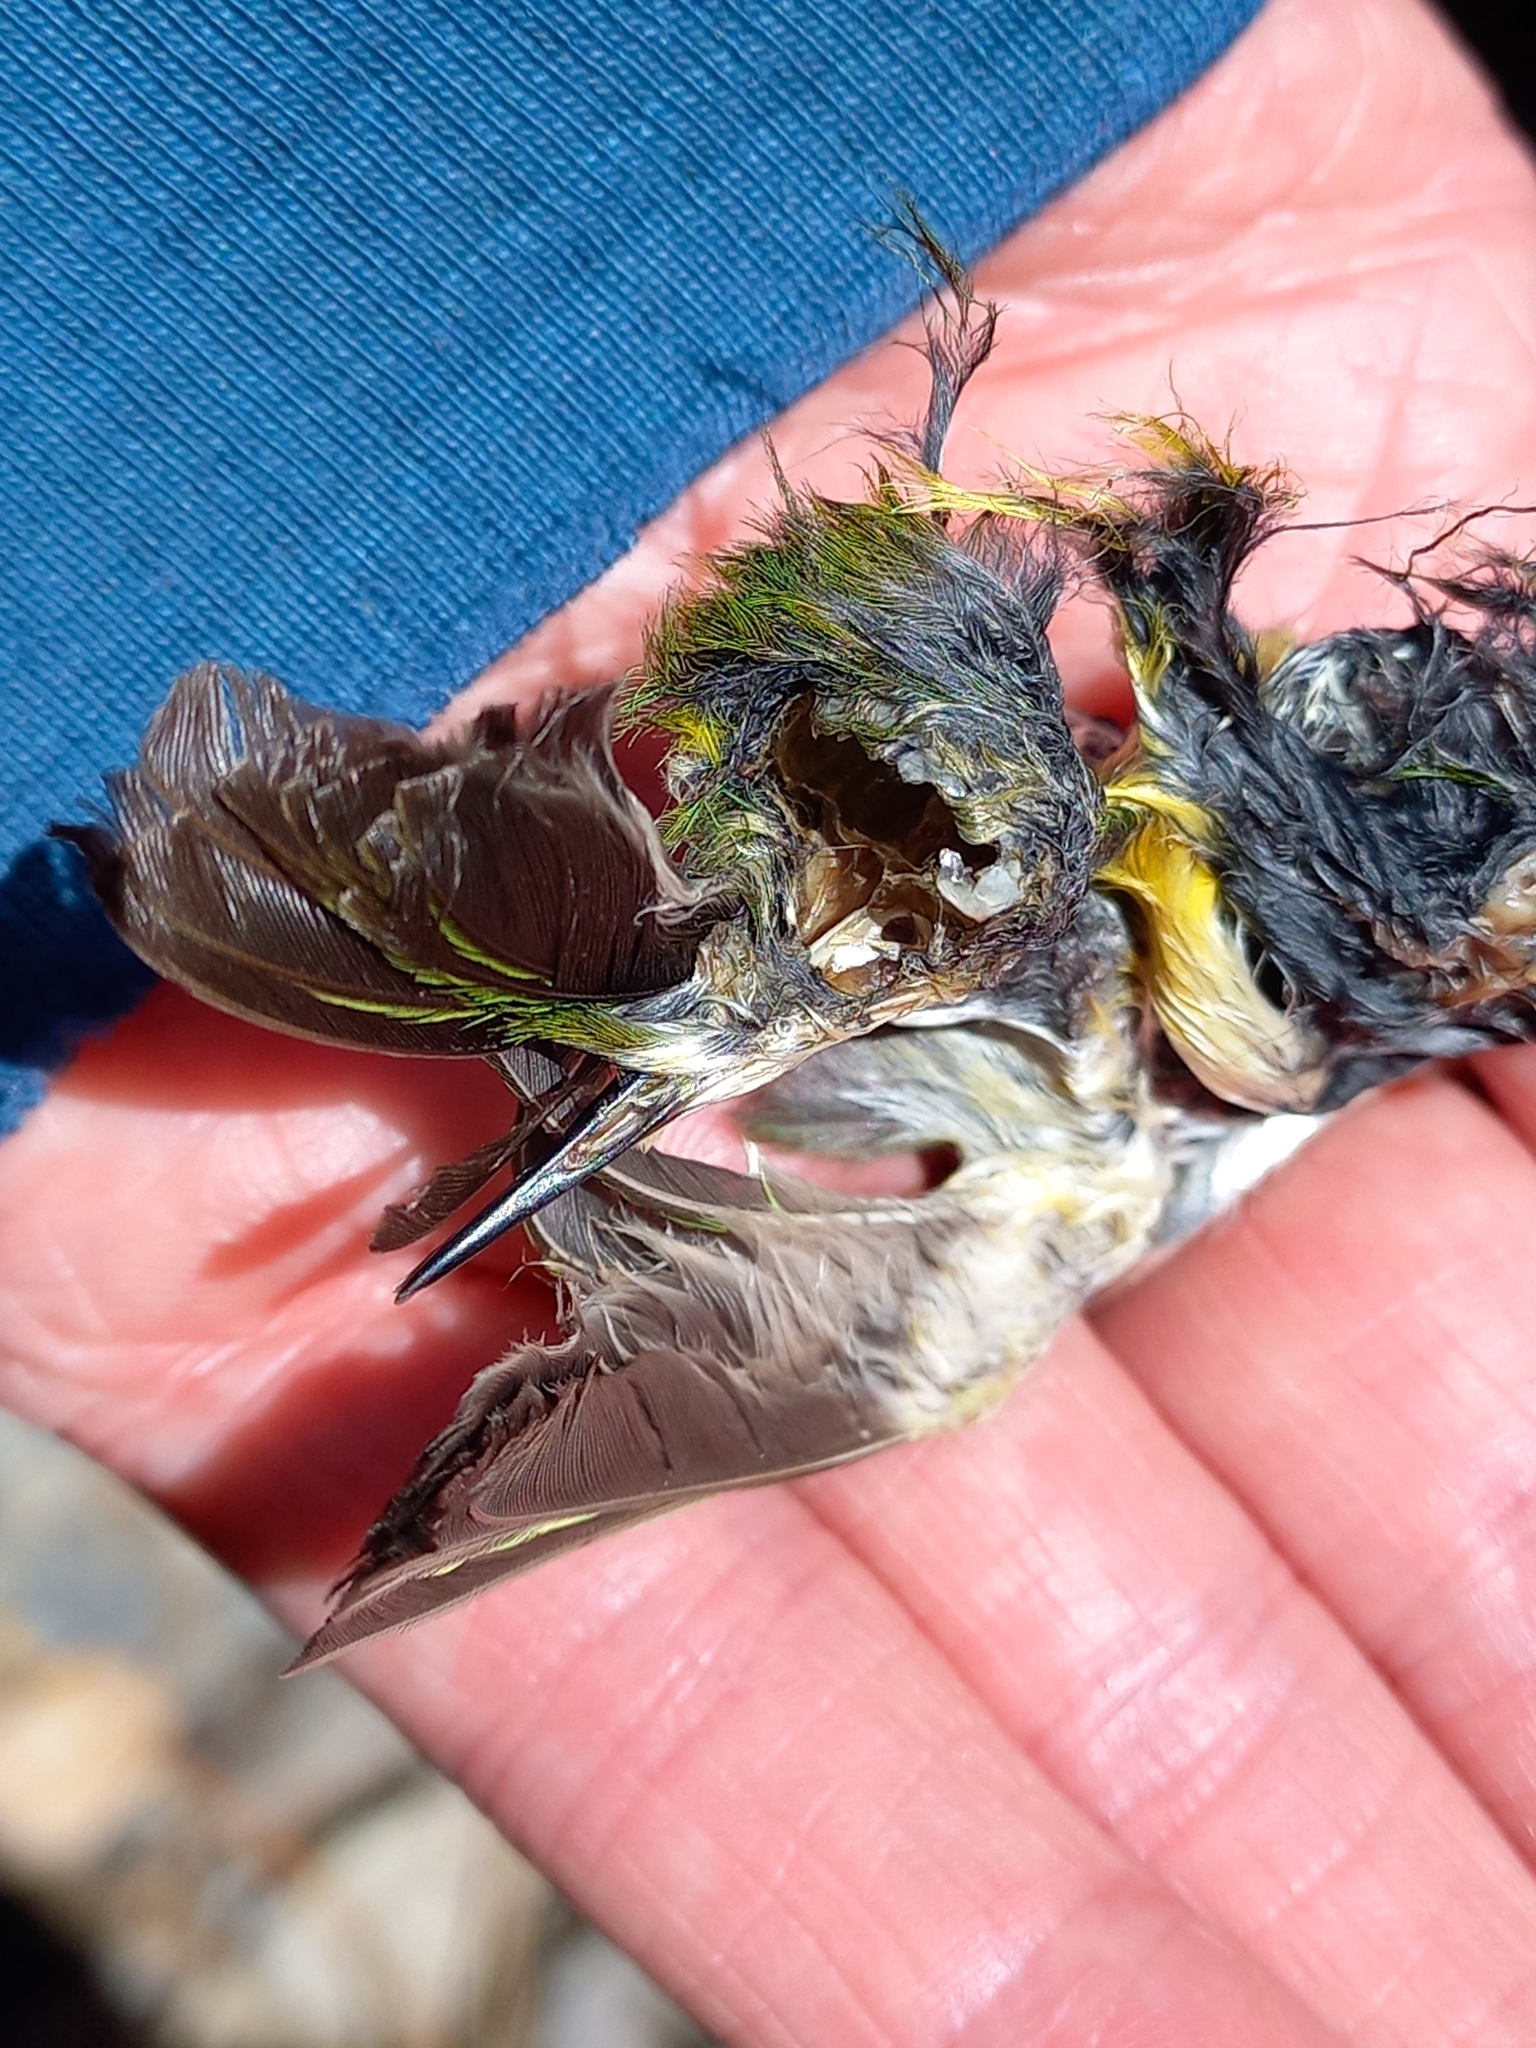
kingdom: Animalia
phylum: Chordata
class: Aves
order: Passeriformes
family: Acanthisittidae
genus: Acanthisitta
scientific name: Acanthisitta chloris
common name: Rifleman
